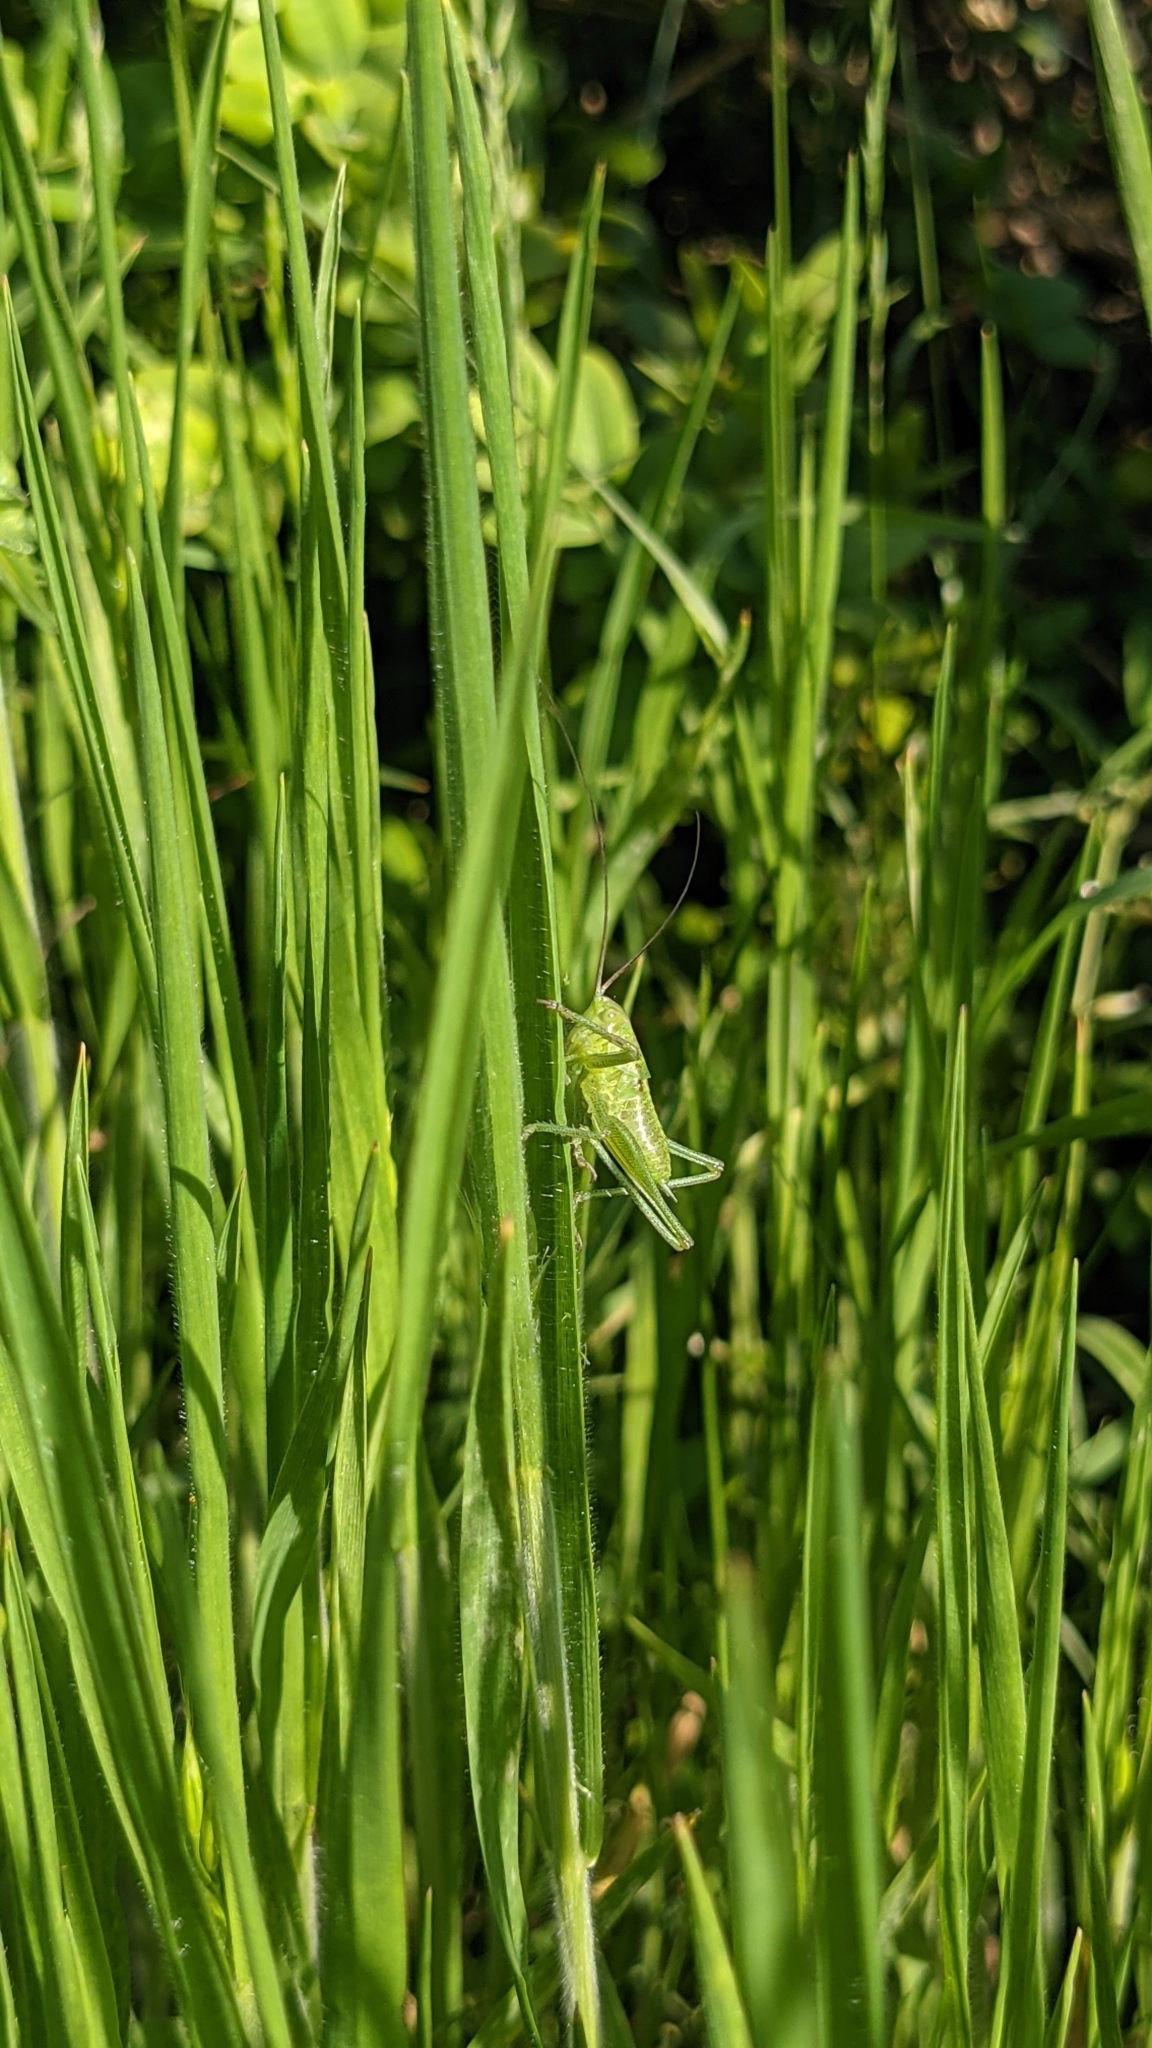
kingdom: Animalia
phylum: Arthropoda
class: Insecta
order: Orthoptera
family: Tettigoniidae
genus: Tettigonia
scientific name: Tettigonia viridissima
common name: Great green bush-cricket
